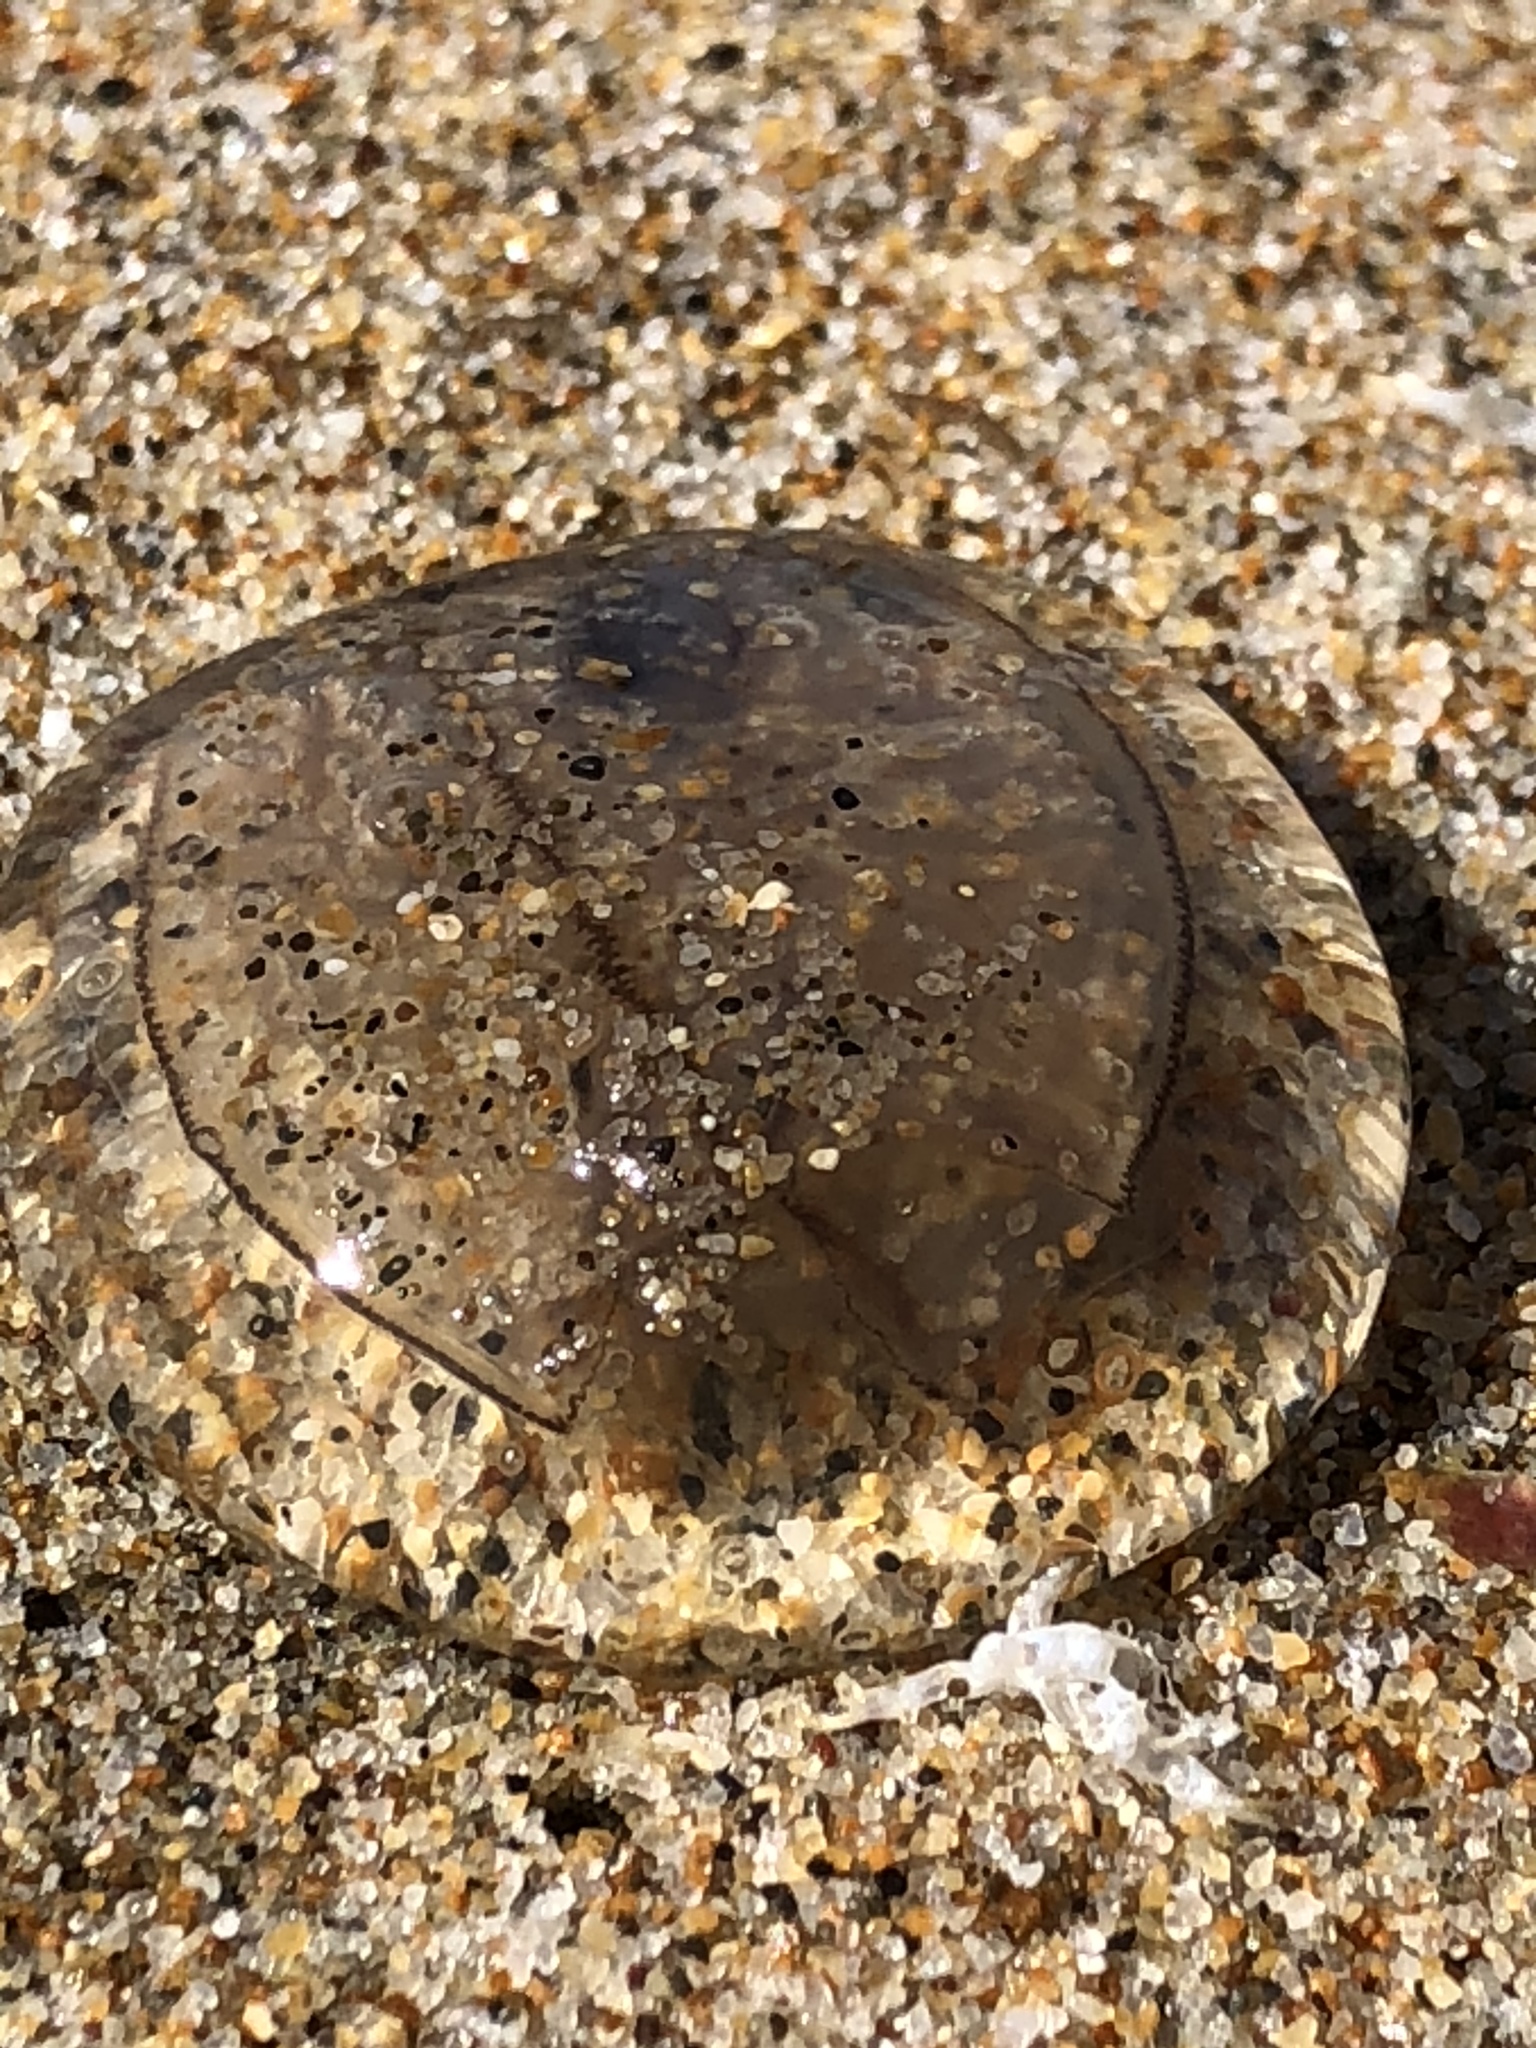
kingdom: Animalia
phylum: Cnidaria
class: Hydrozoa
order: Anthoathecata
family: Corynidae
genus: Polyorchis
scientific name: Polyorchis penicillatus
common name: Penicillate jellyfish
